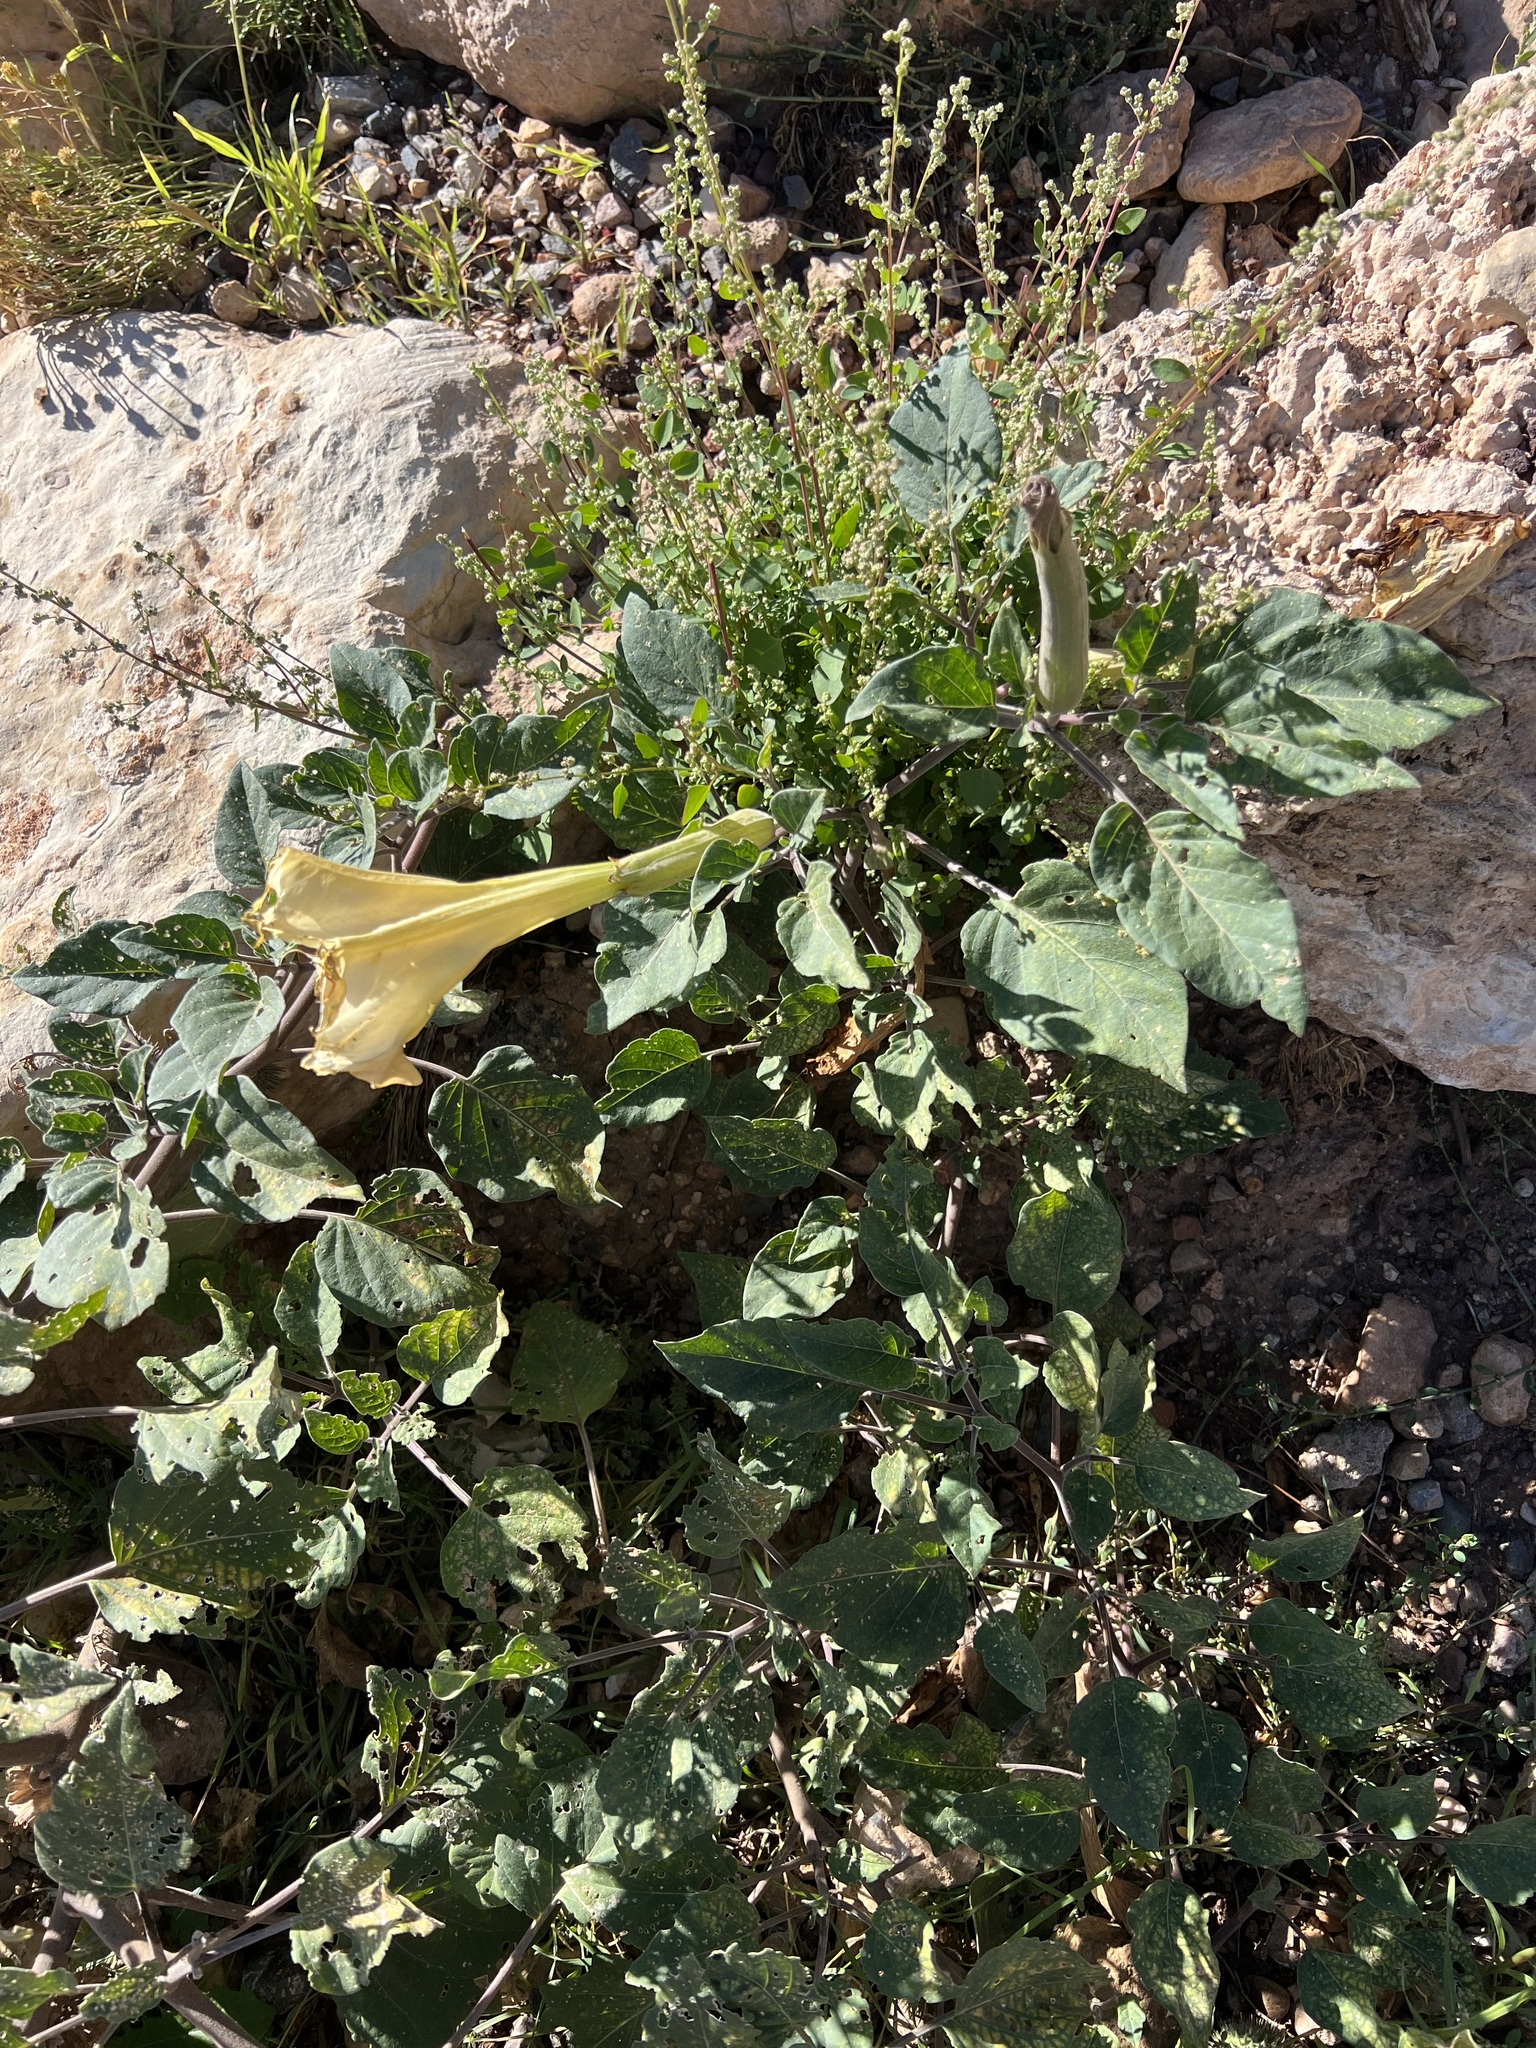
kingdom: Plantae
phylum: Tracheophyta
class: Magnoliopsida
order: Solanales
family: Solanaceae
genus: Datura
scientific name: Datura wrightii
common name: Sacred thorn-apple
